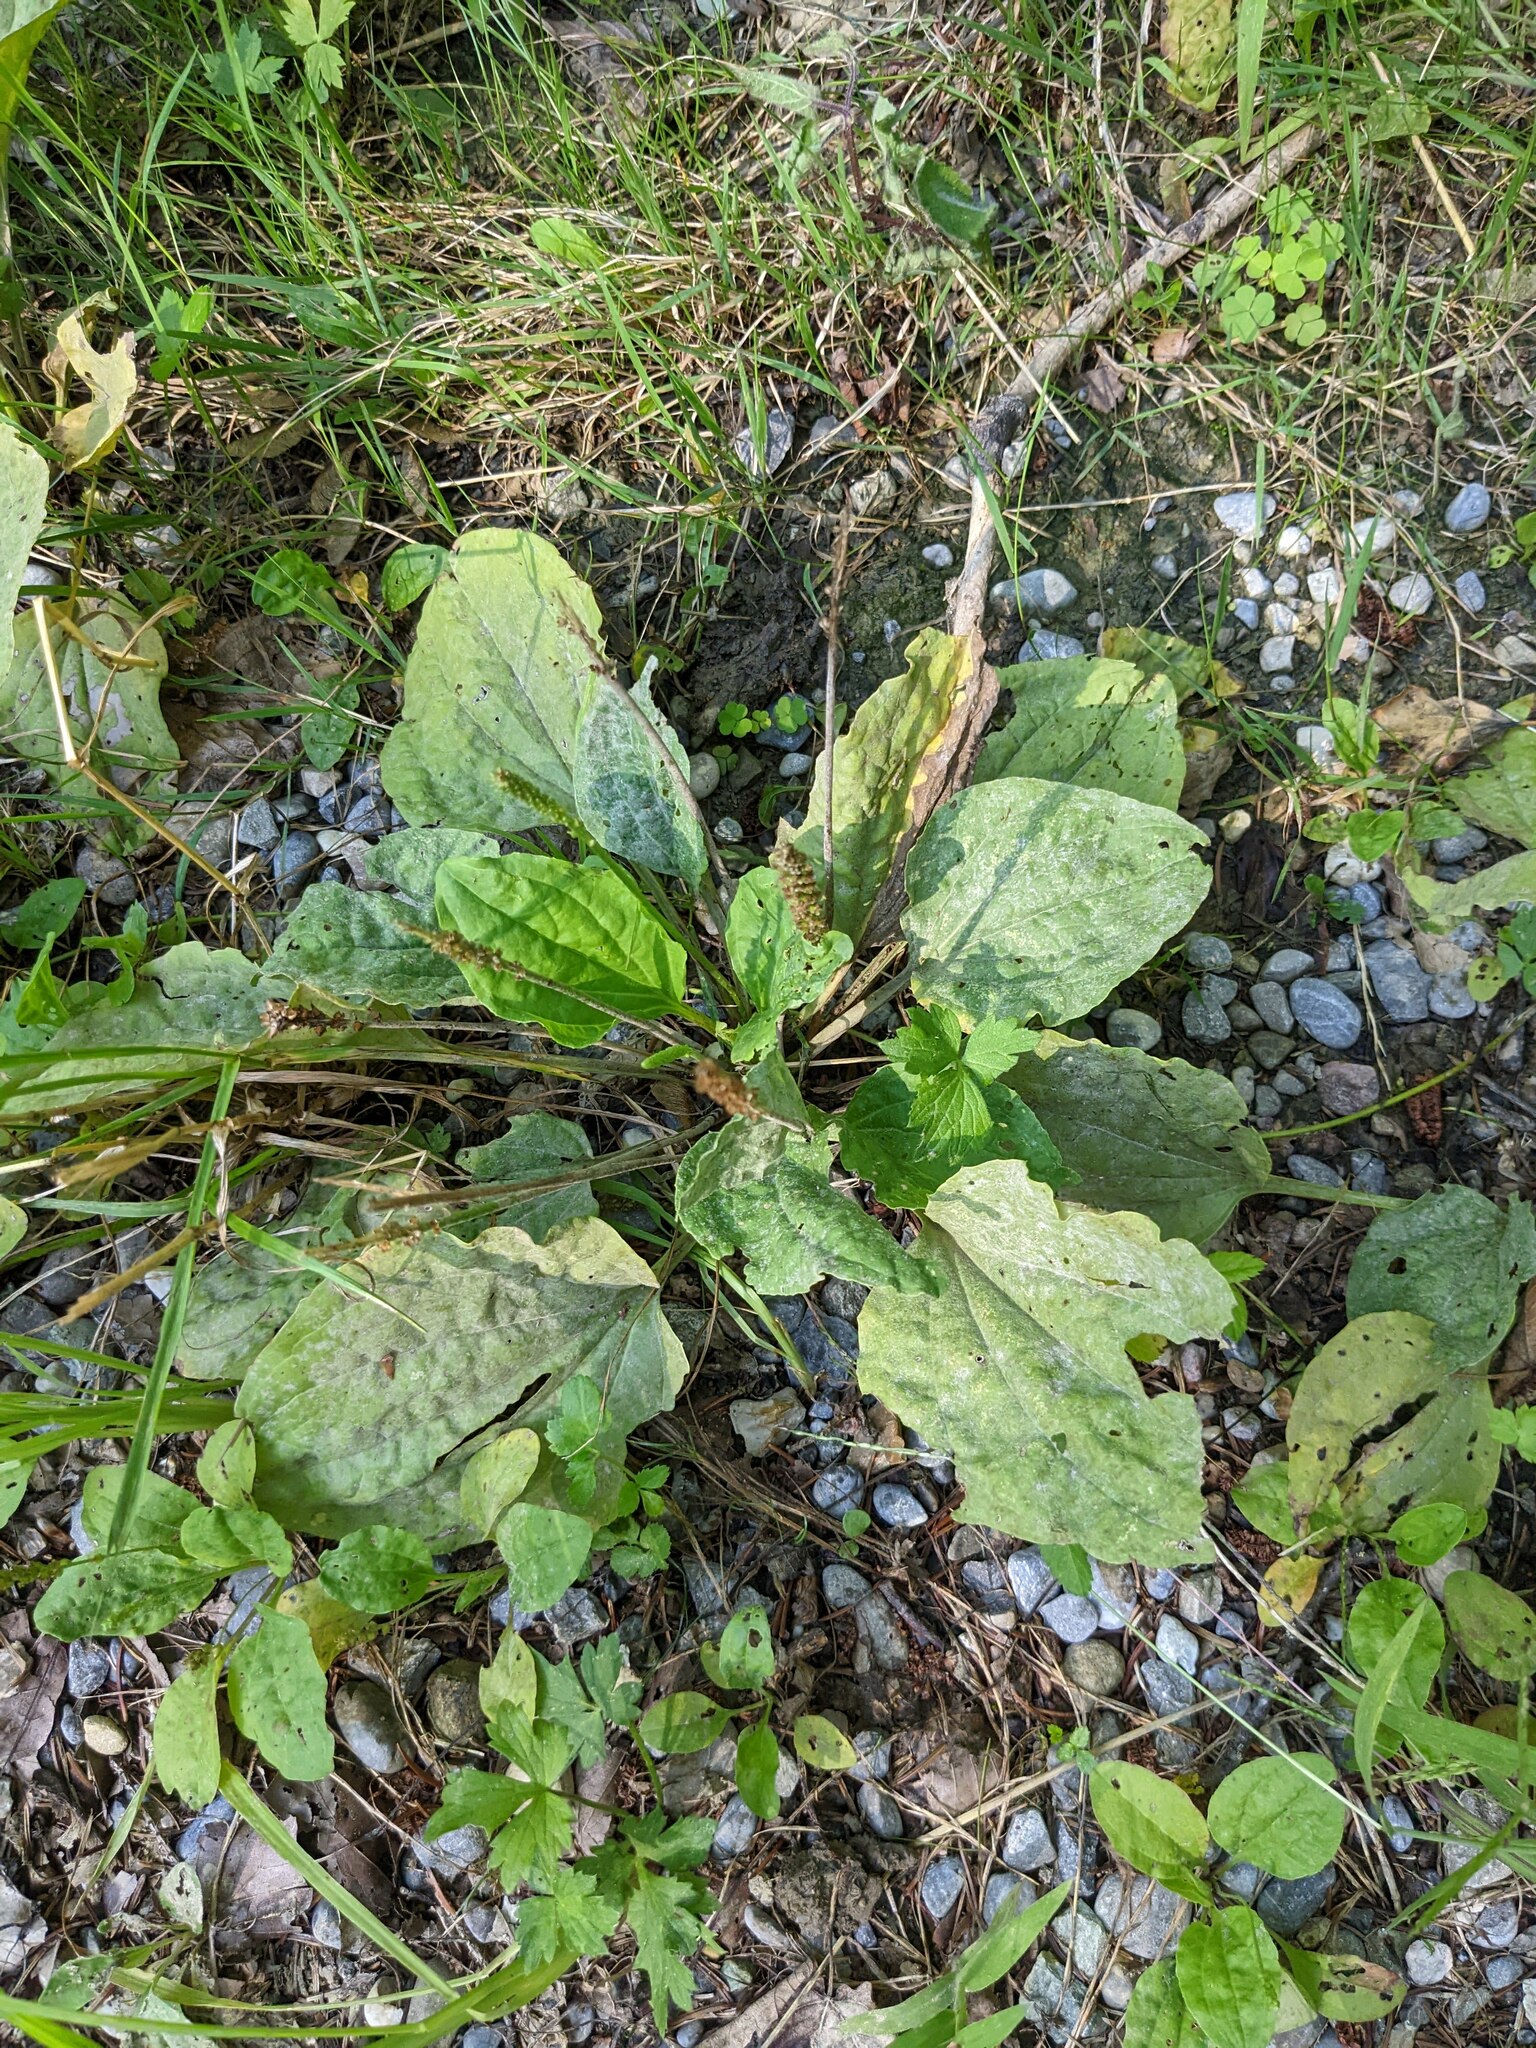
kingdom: Plantae
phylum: Tracheophyta
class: Magnoliopsida
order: Lamiales
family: Plantaginaceae
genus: Plantago
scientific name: Plantago major
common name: Common plantain
